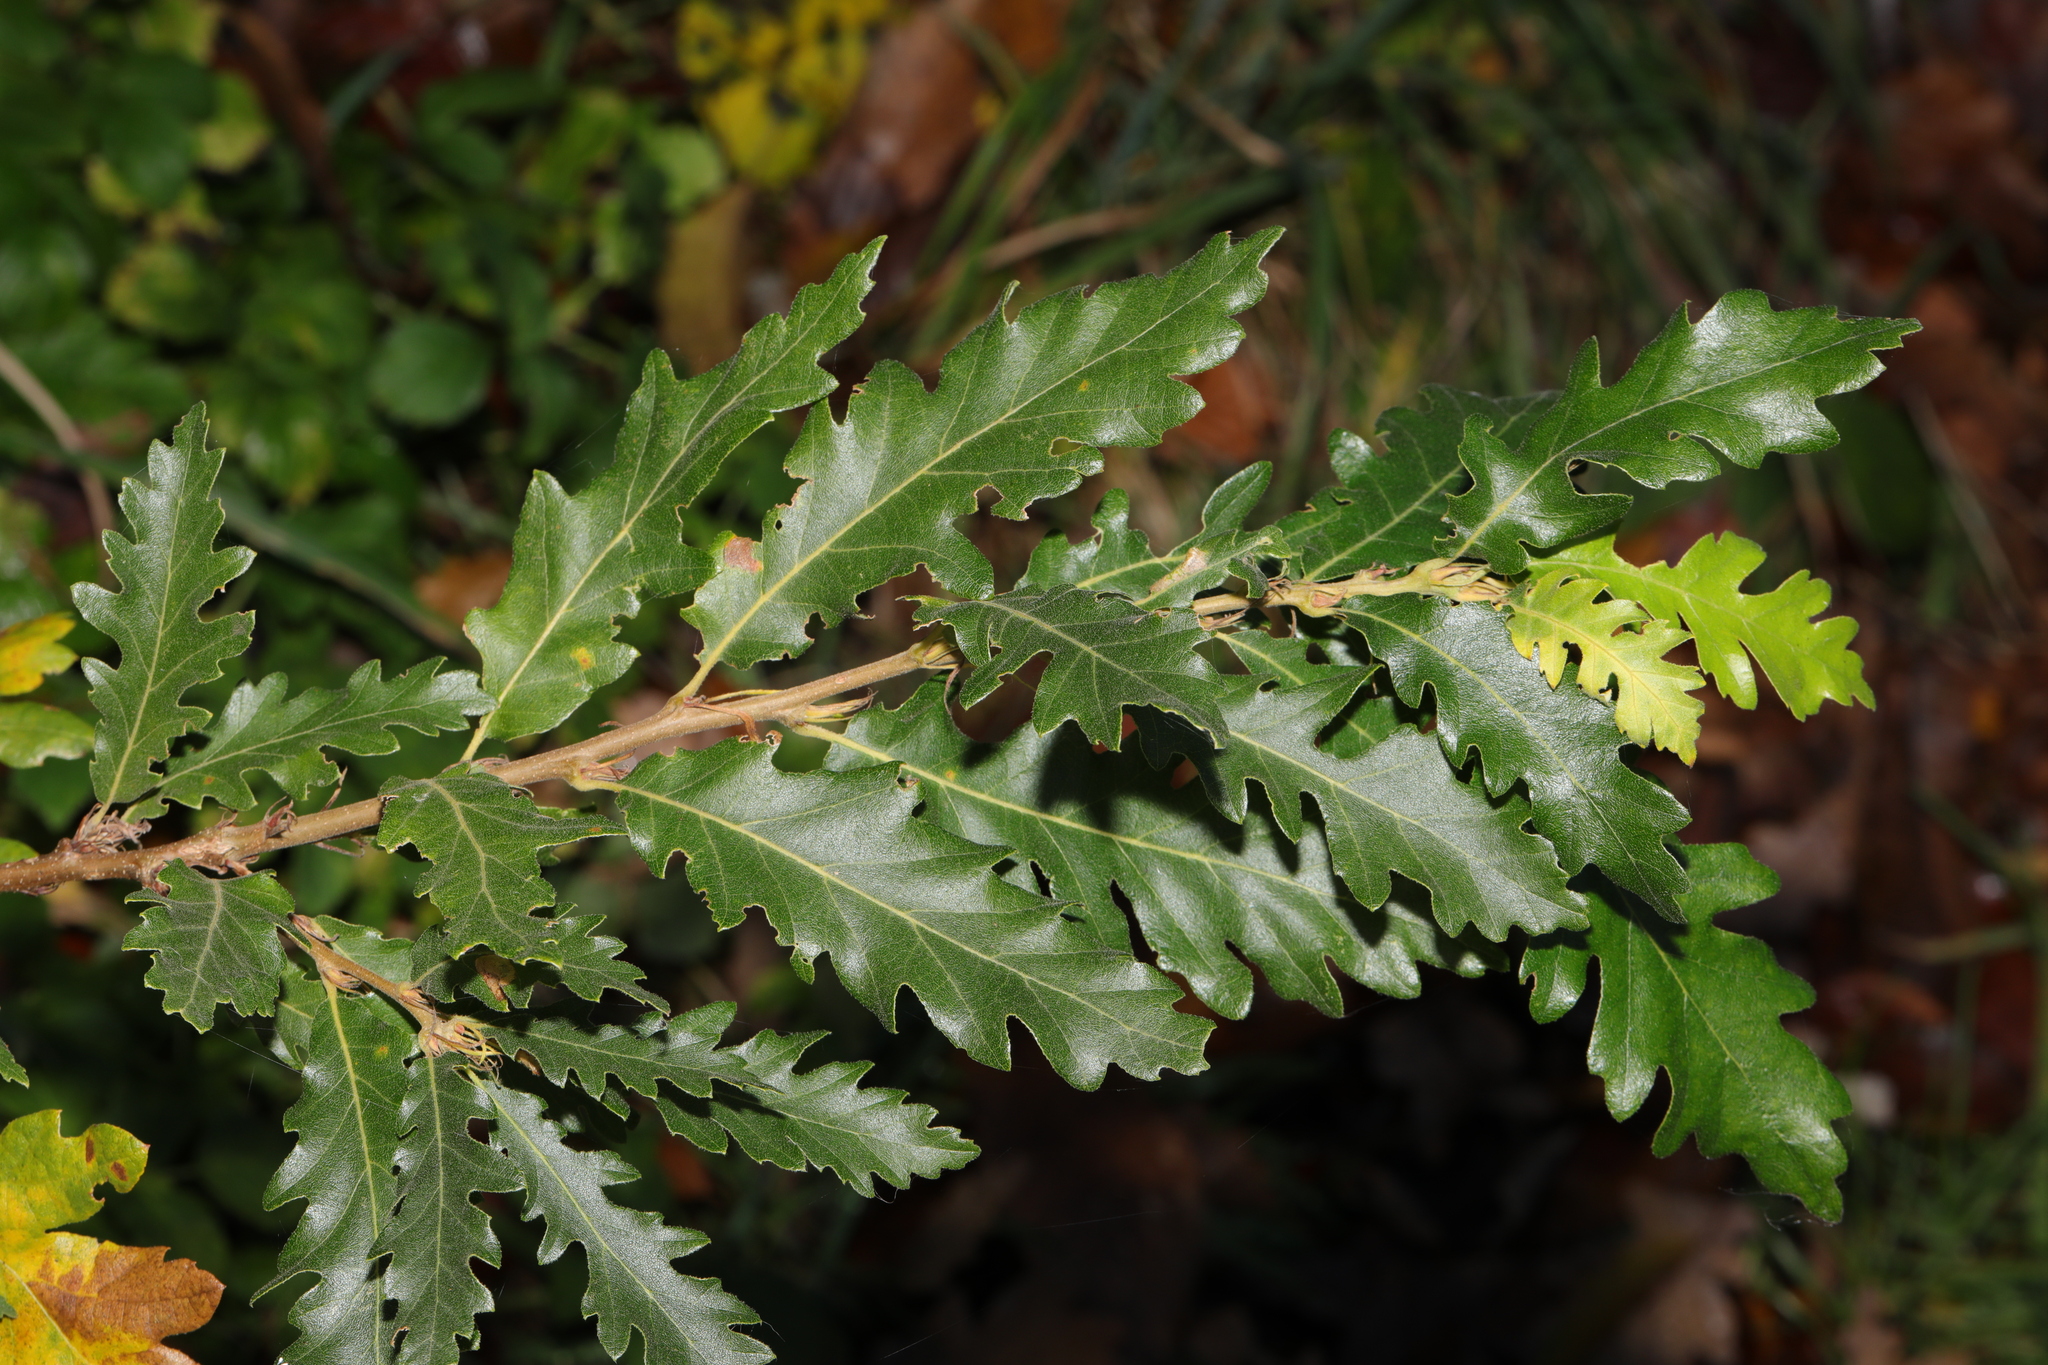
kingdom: Plantae
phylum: Tracheophyta
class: Magnoliopsida
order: Fagales
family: Fagaceae
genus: Quercus
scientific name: Quercus cerris
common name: Turkey oak
